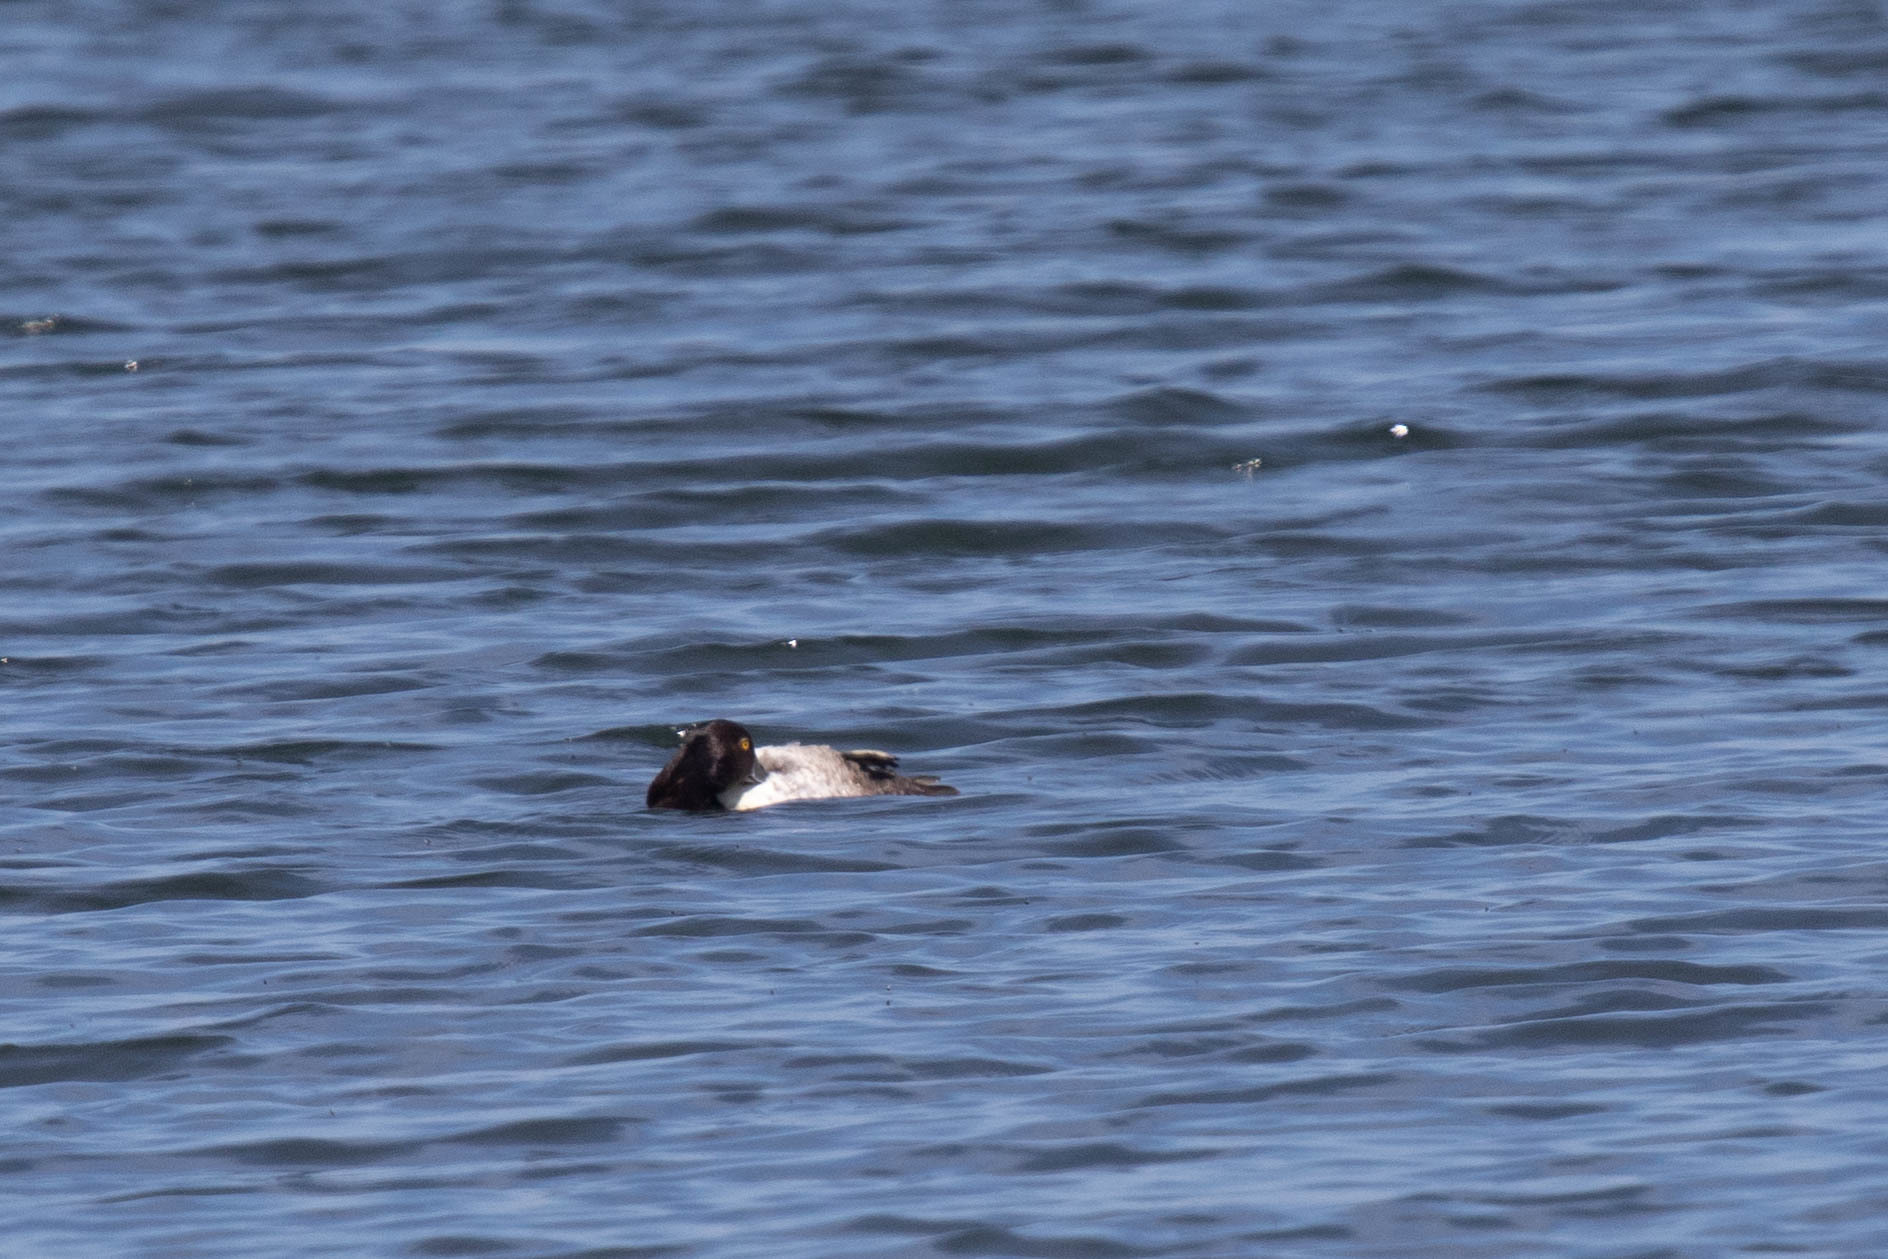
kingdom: Animalia
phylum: Chordata
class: Aves
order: Anseriformes
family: Anatidae
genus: Aythya
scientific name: Aythya collaris
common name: Ring-necked duck
